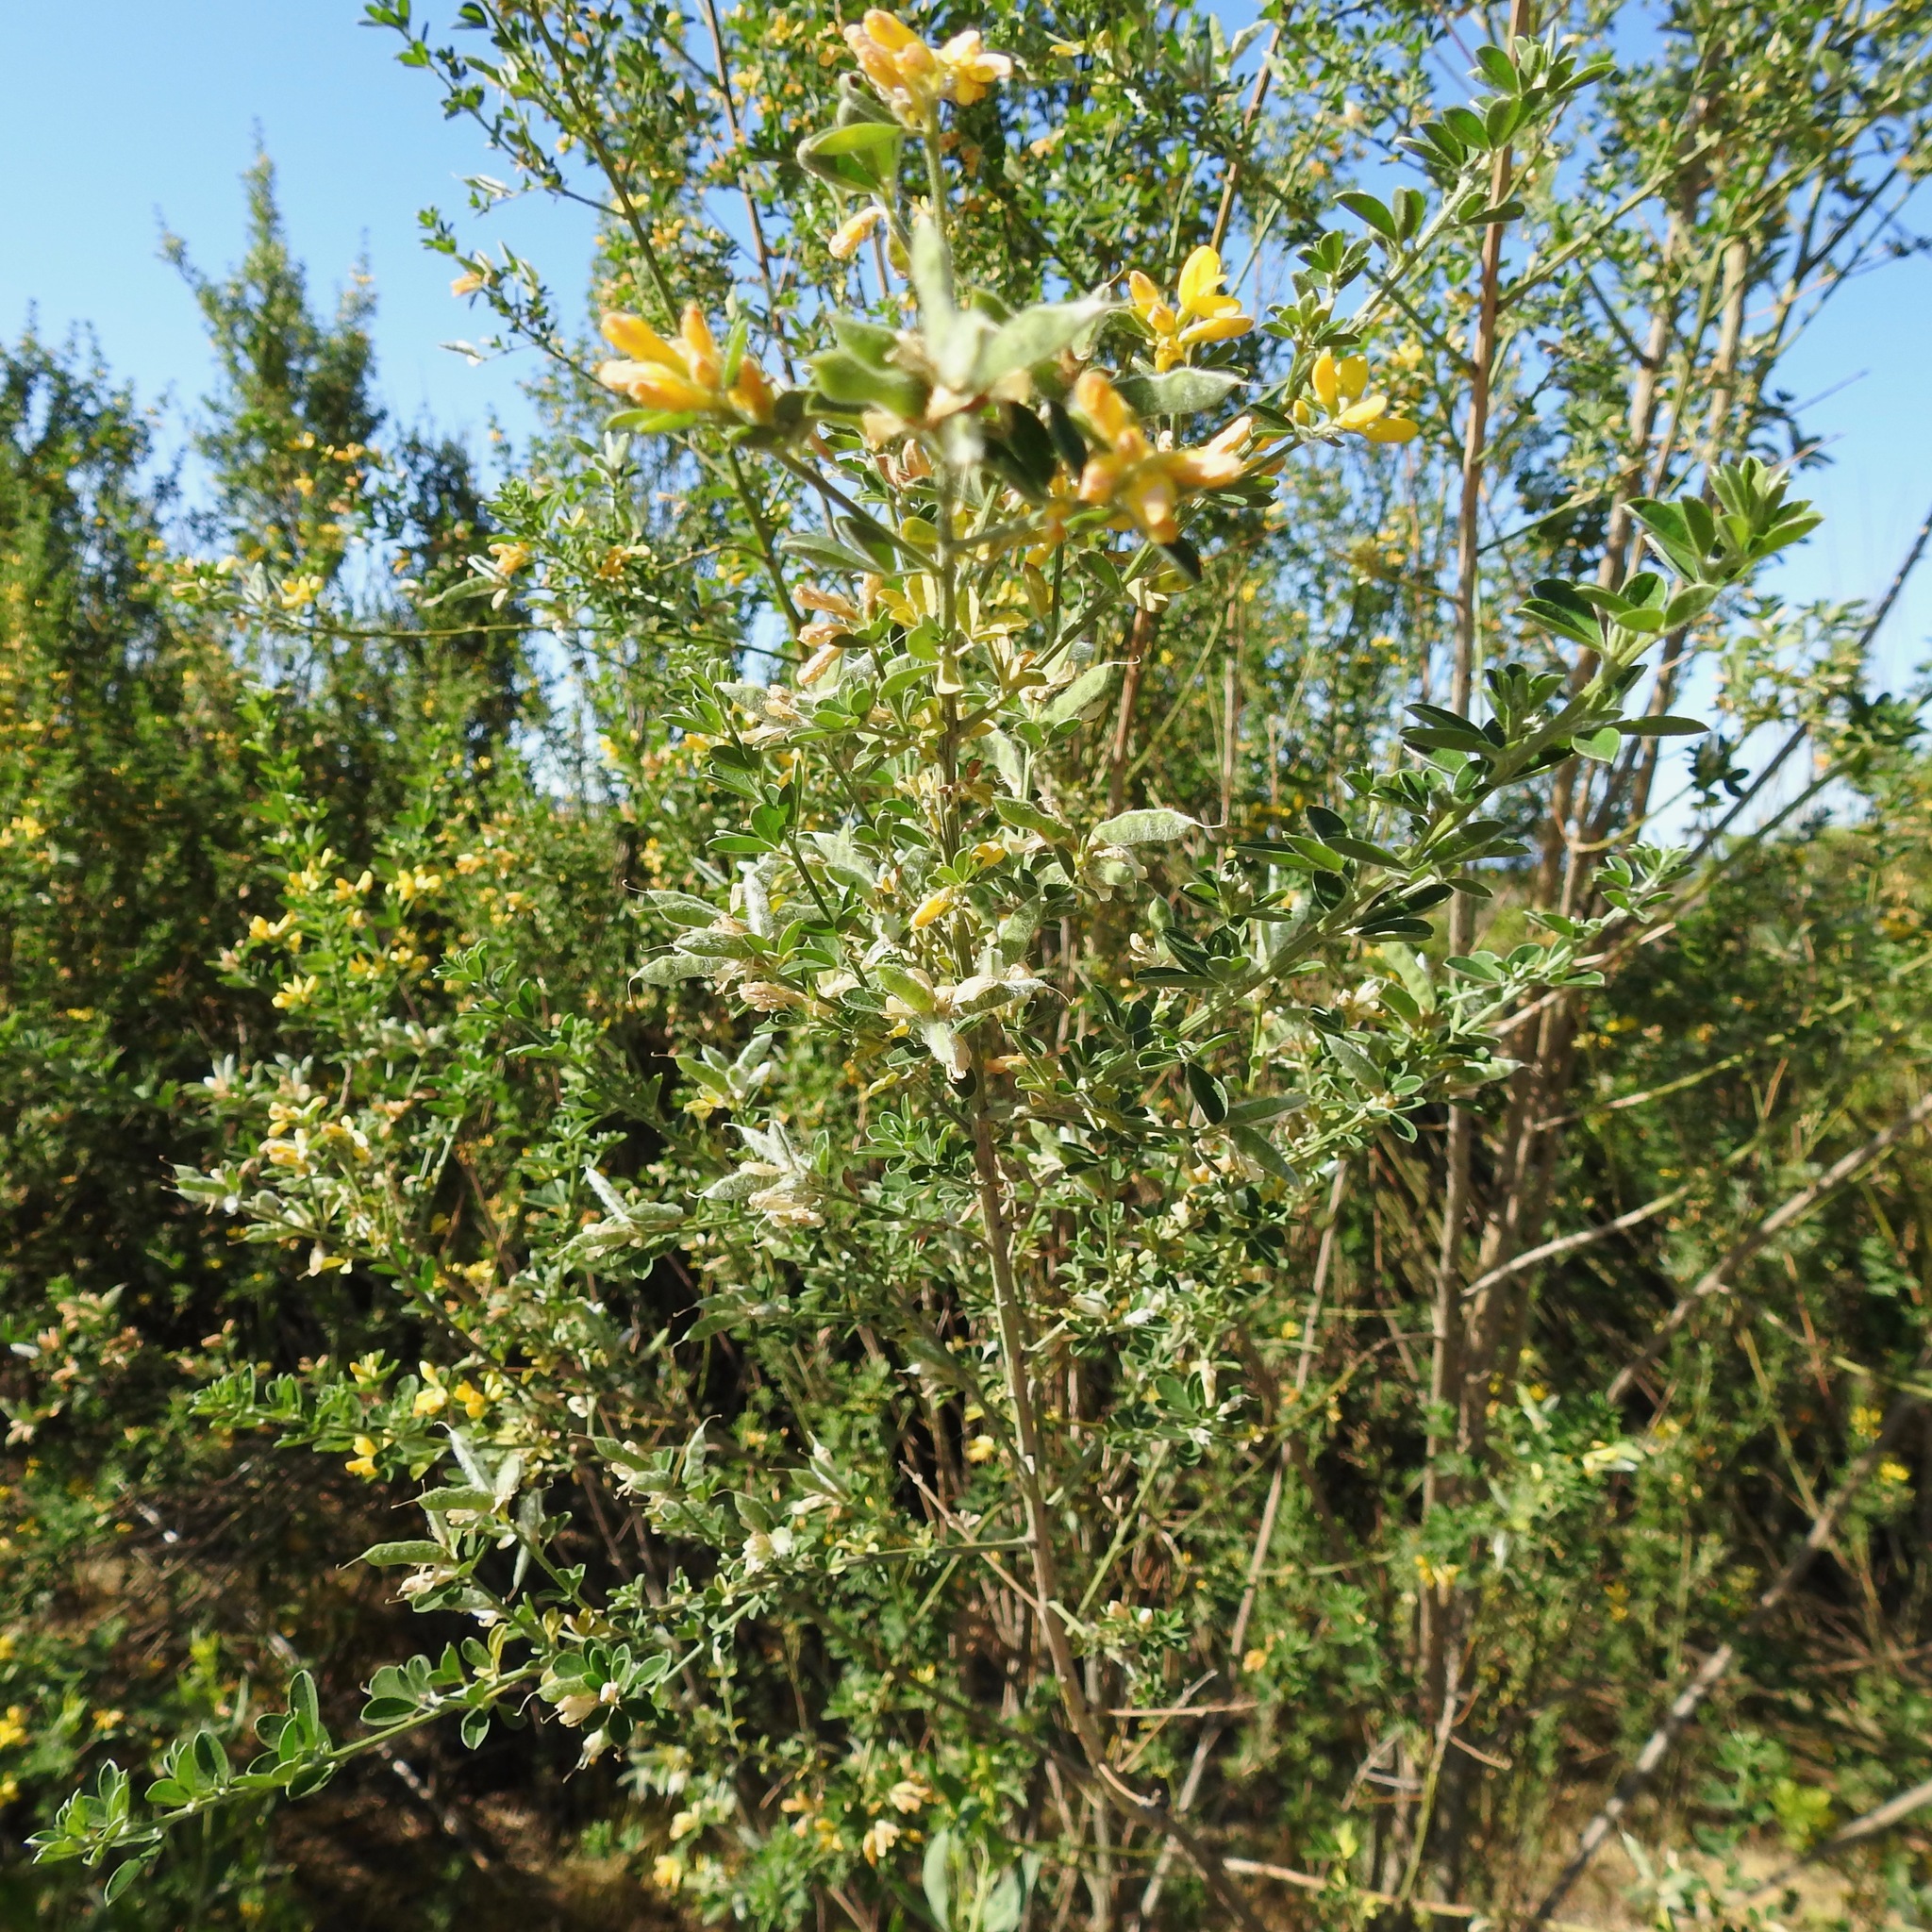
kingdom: Plantae
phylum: Tracheophyta
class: Magnoliopsida
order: Fabales
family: Fabaceae
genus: Genista
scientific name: Genista monspessulana
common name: Montpellier broom
